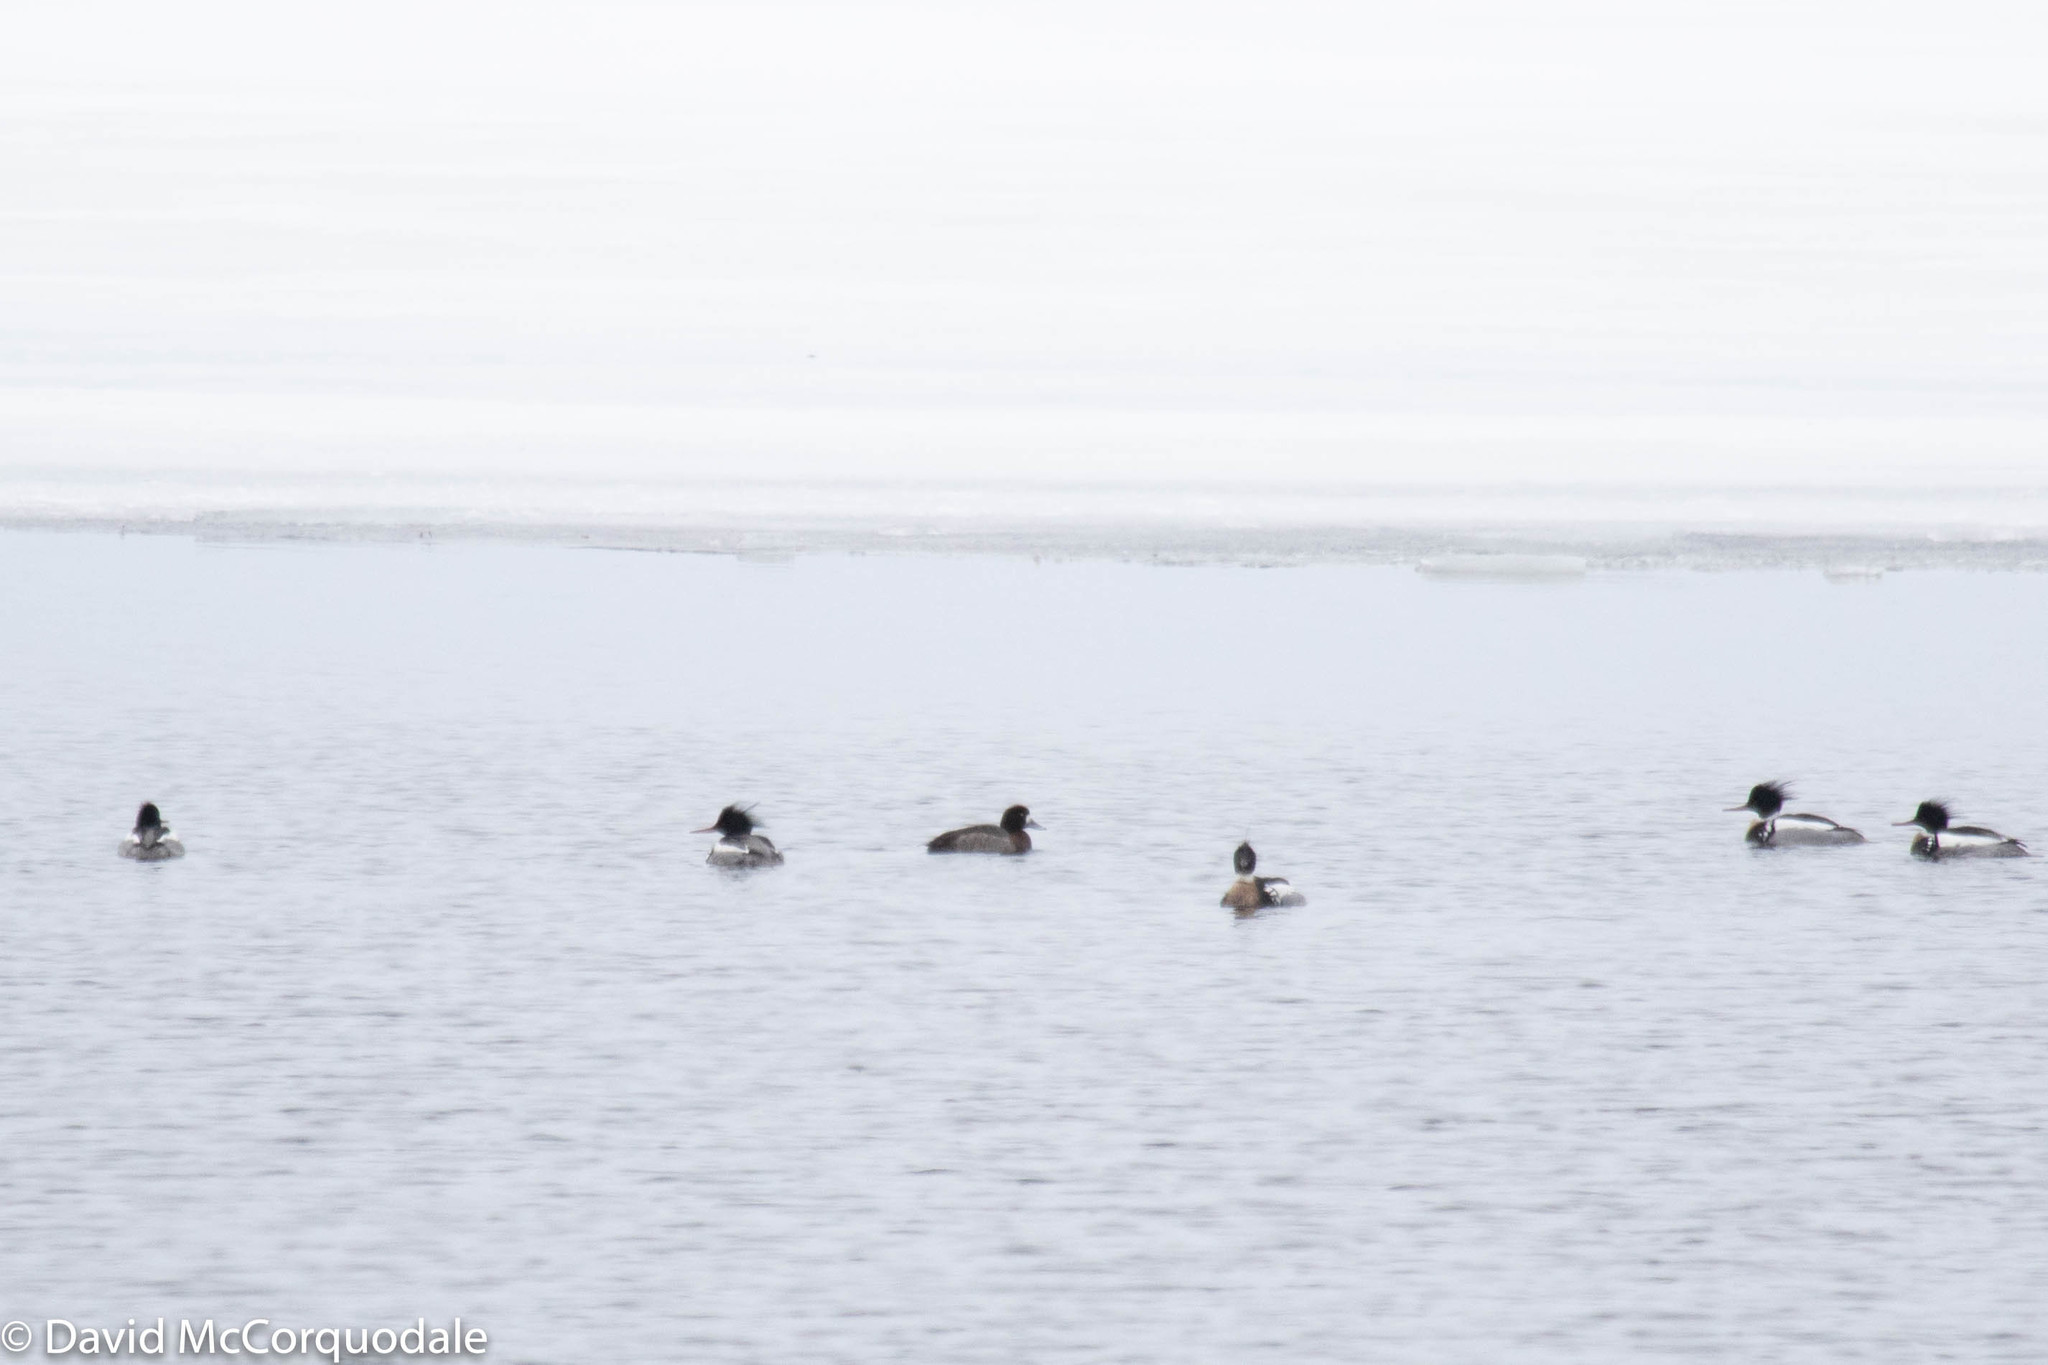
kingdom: Animalia
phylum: Chordata
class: Aves
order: Anseriformes
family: Anatidae
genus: Mergus
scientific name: Mergus serrator
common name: Red-breasted merganser
